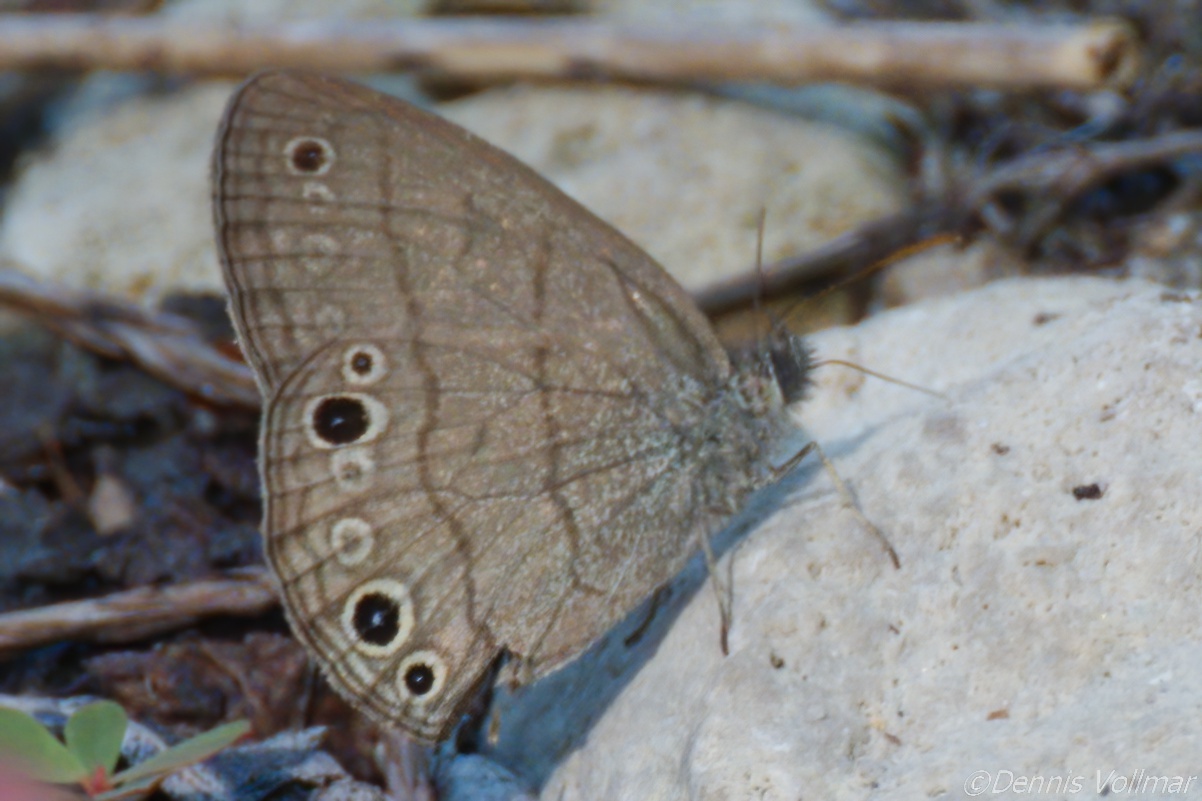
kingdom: Animalia
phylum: Arthropoda
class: Insecta
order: Lepidoptera
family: Nymphalidae
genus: Hermeuptychia
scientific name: Hermeuptychia hermes
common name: Hermes satyr
